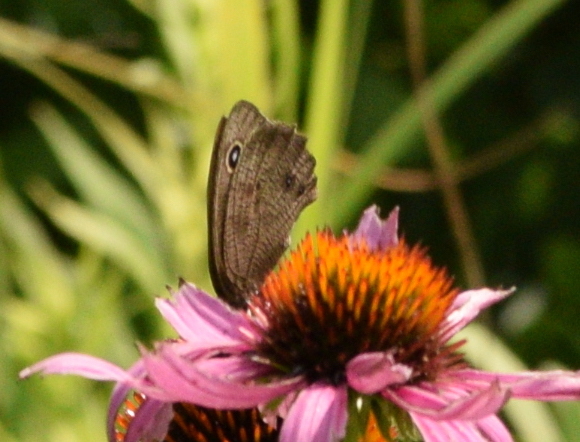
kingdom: Animalia
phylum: Arthropoda
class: Insecta
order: Lepidoptera
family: Nymphalidae
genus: Cercyonis
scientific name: Cercyonis pegala
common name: Common wood-nymph
